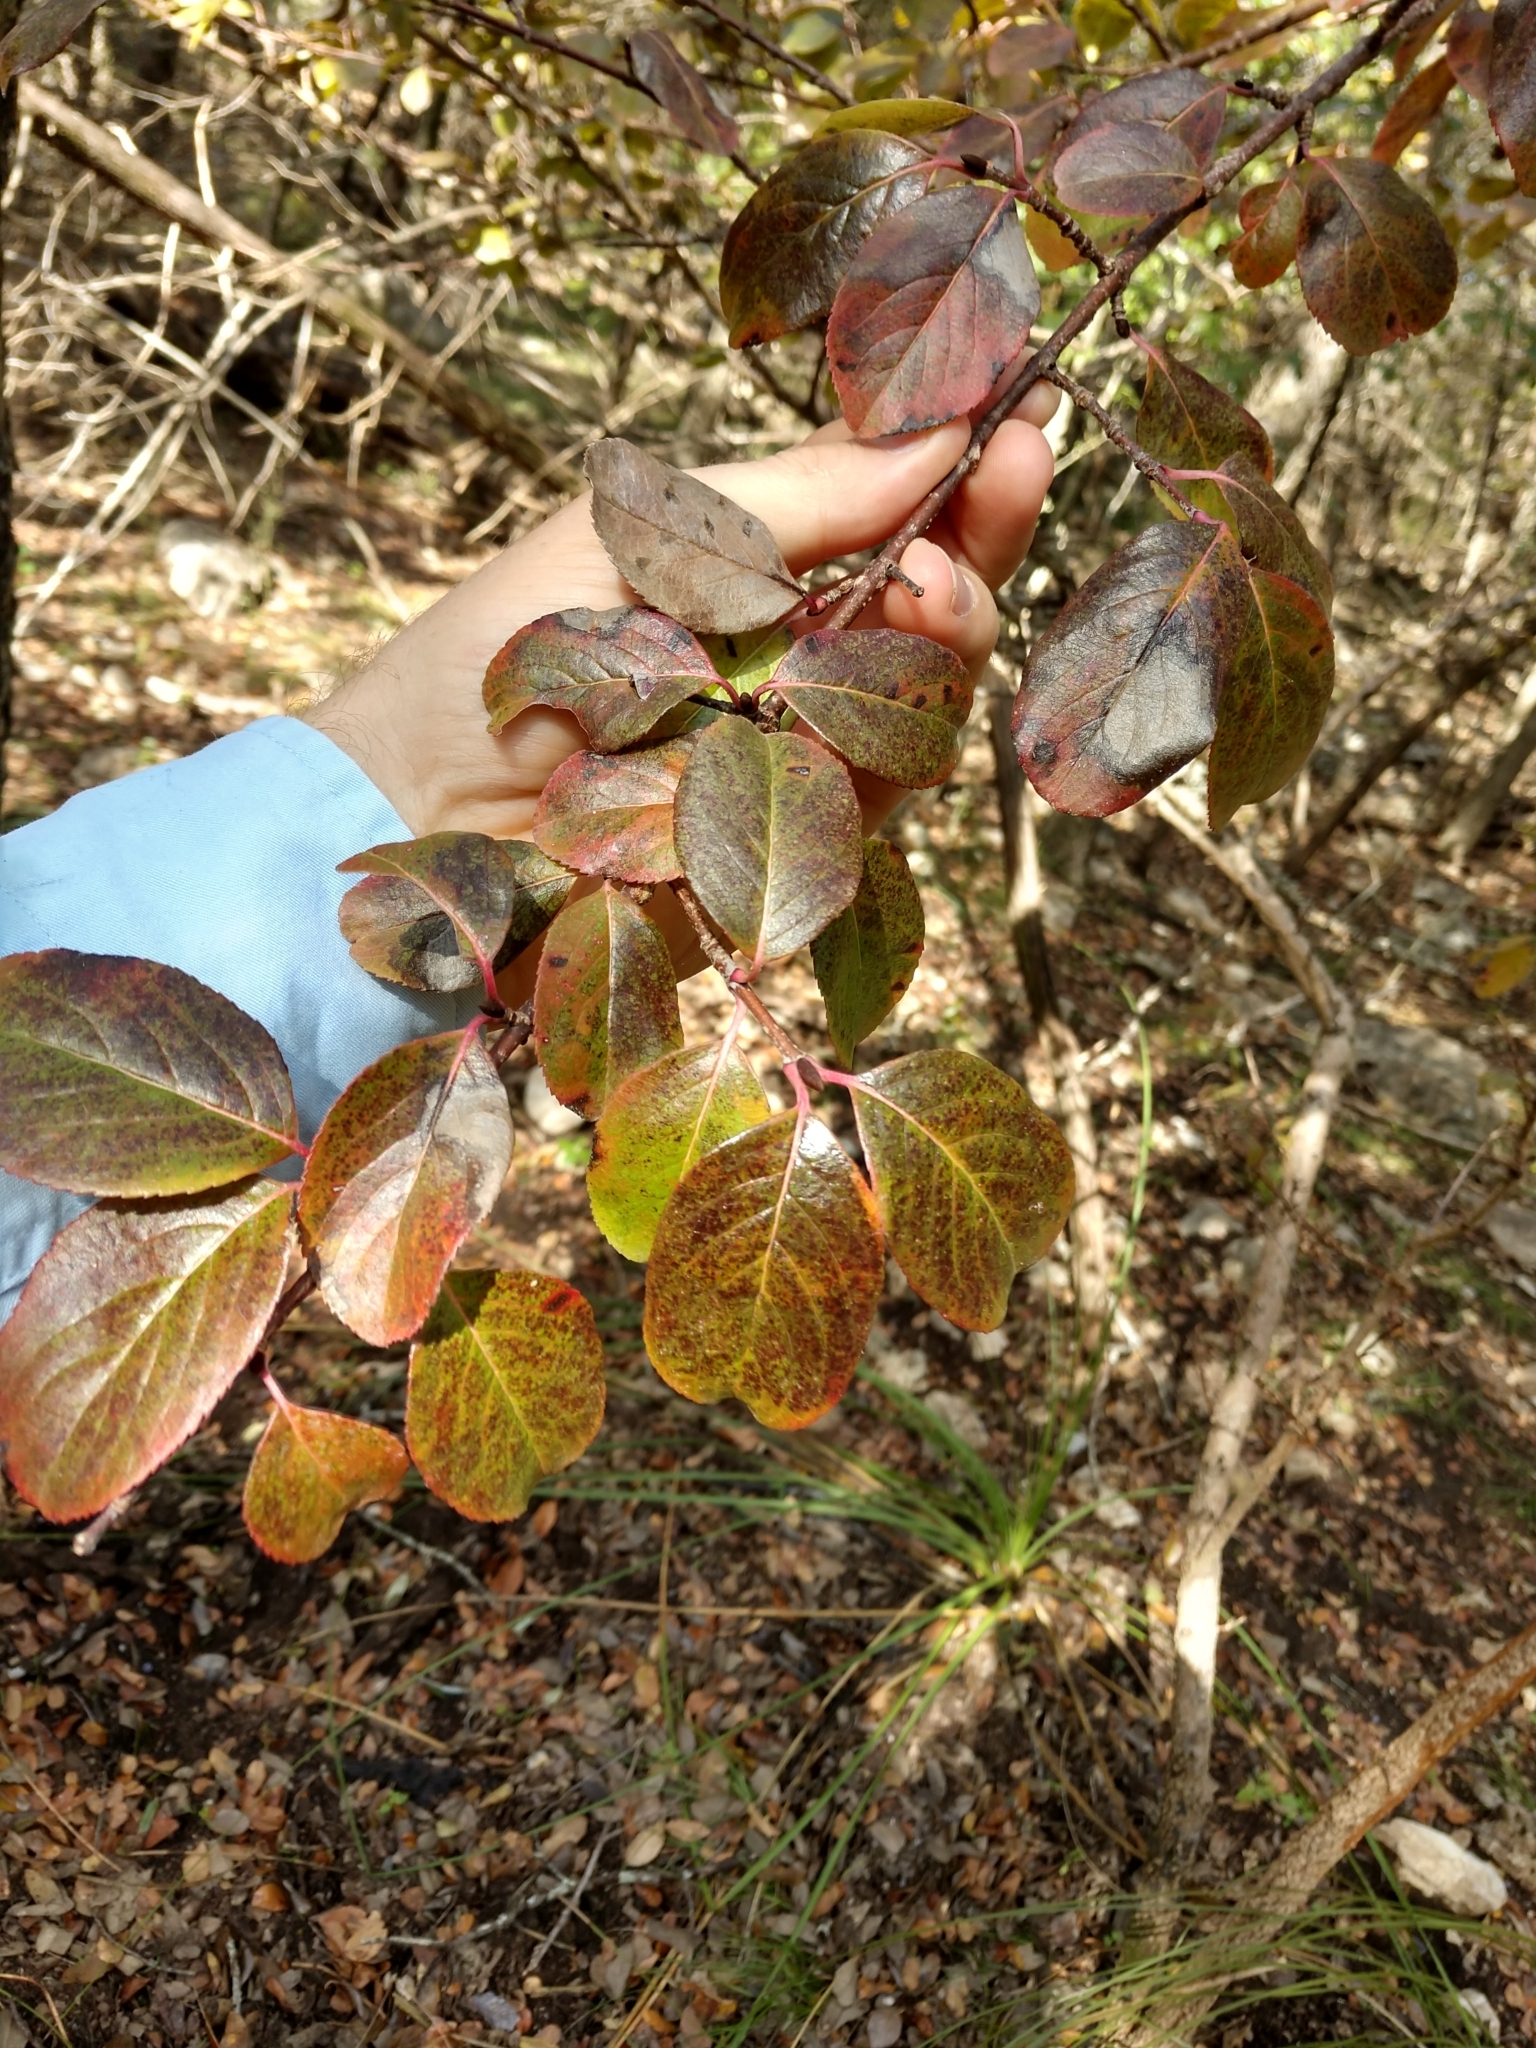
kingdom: Plantae
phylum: Tracheophyta
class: Magnoliopsida
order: Dipsacales
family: Viburnaceae
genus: Viburnum
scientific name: Viburnum rufidulum
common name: Blue haw
